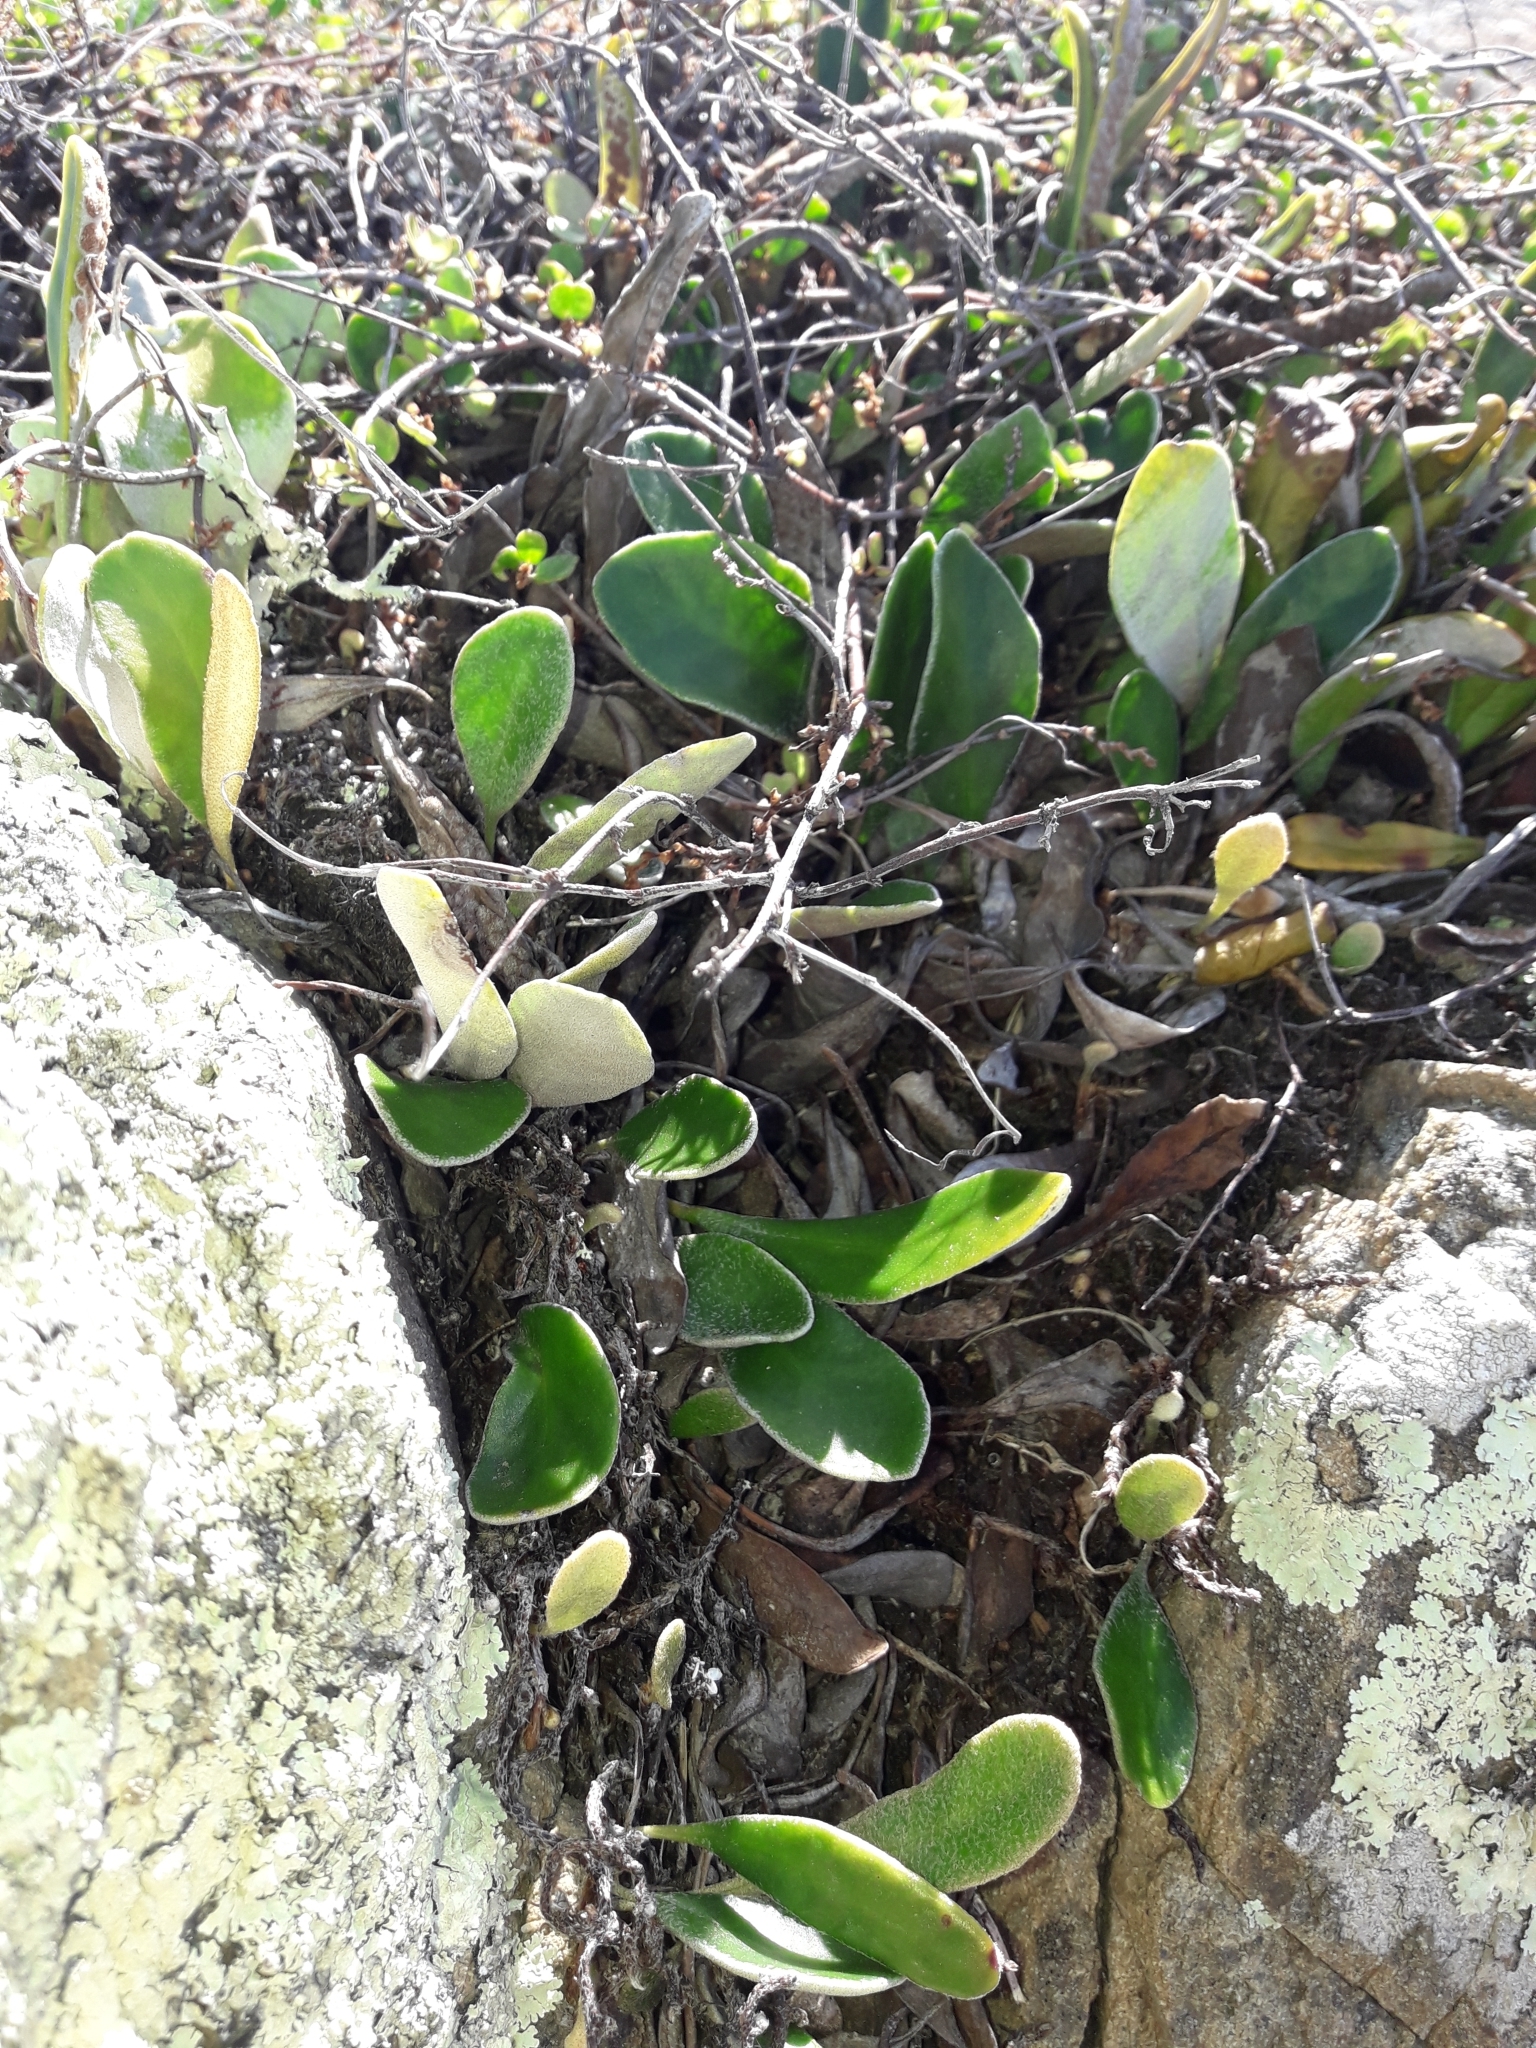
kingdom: Plantae
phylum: Tracheophyta
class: Polypodiopsida
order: Polypodiales
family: Polypodiaceae
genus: Pyrrosia
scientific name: Pyrrosia eleagnifolia
